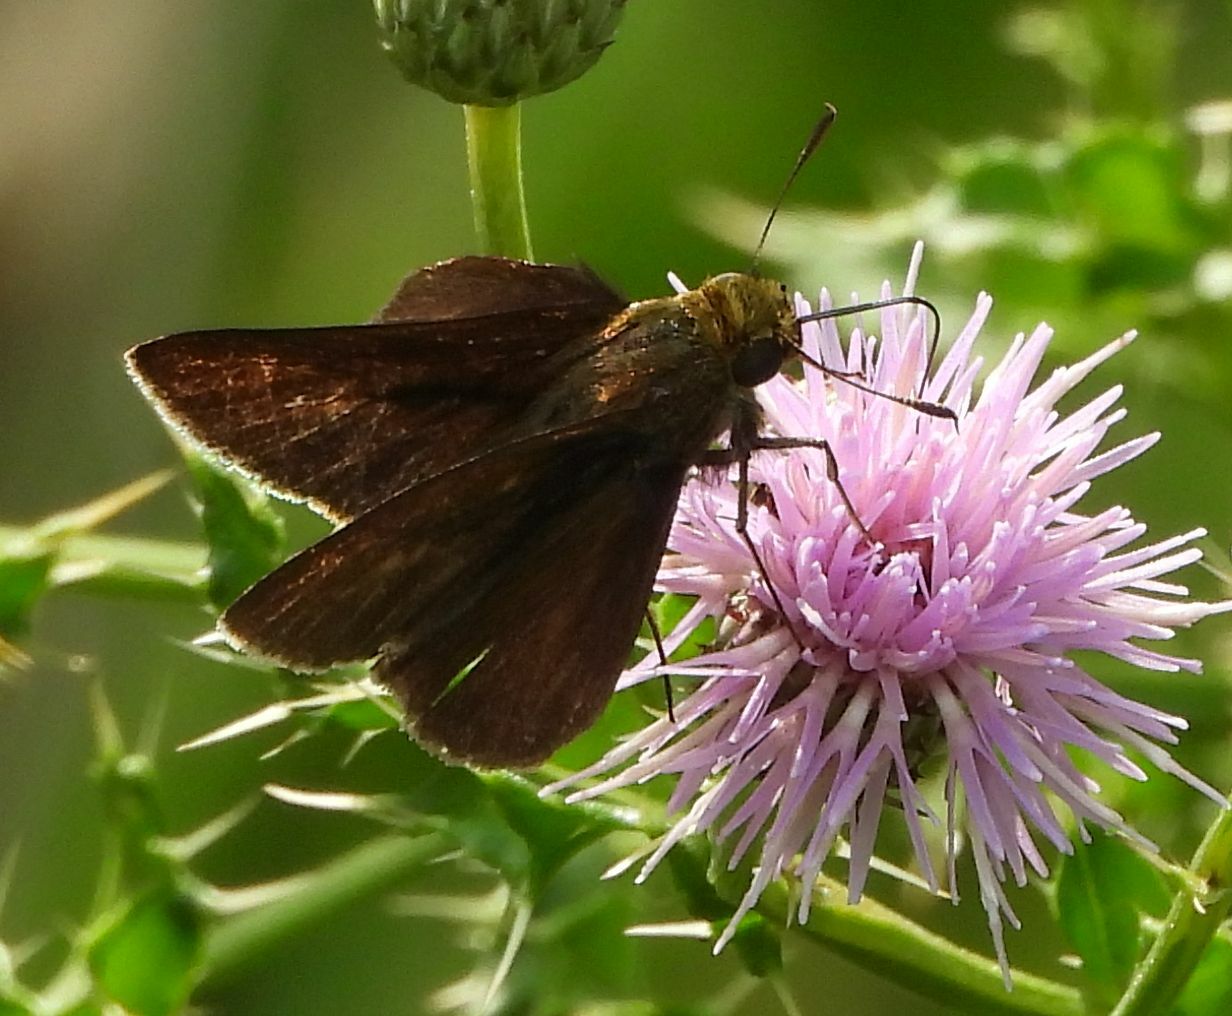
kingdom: Animalia
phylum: Arthropoda
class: Insecta
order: Lepidoptera
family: Hesperiidae
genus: Euphyes
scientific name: Euphyes vestris
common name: Dun skipper
